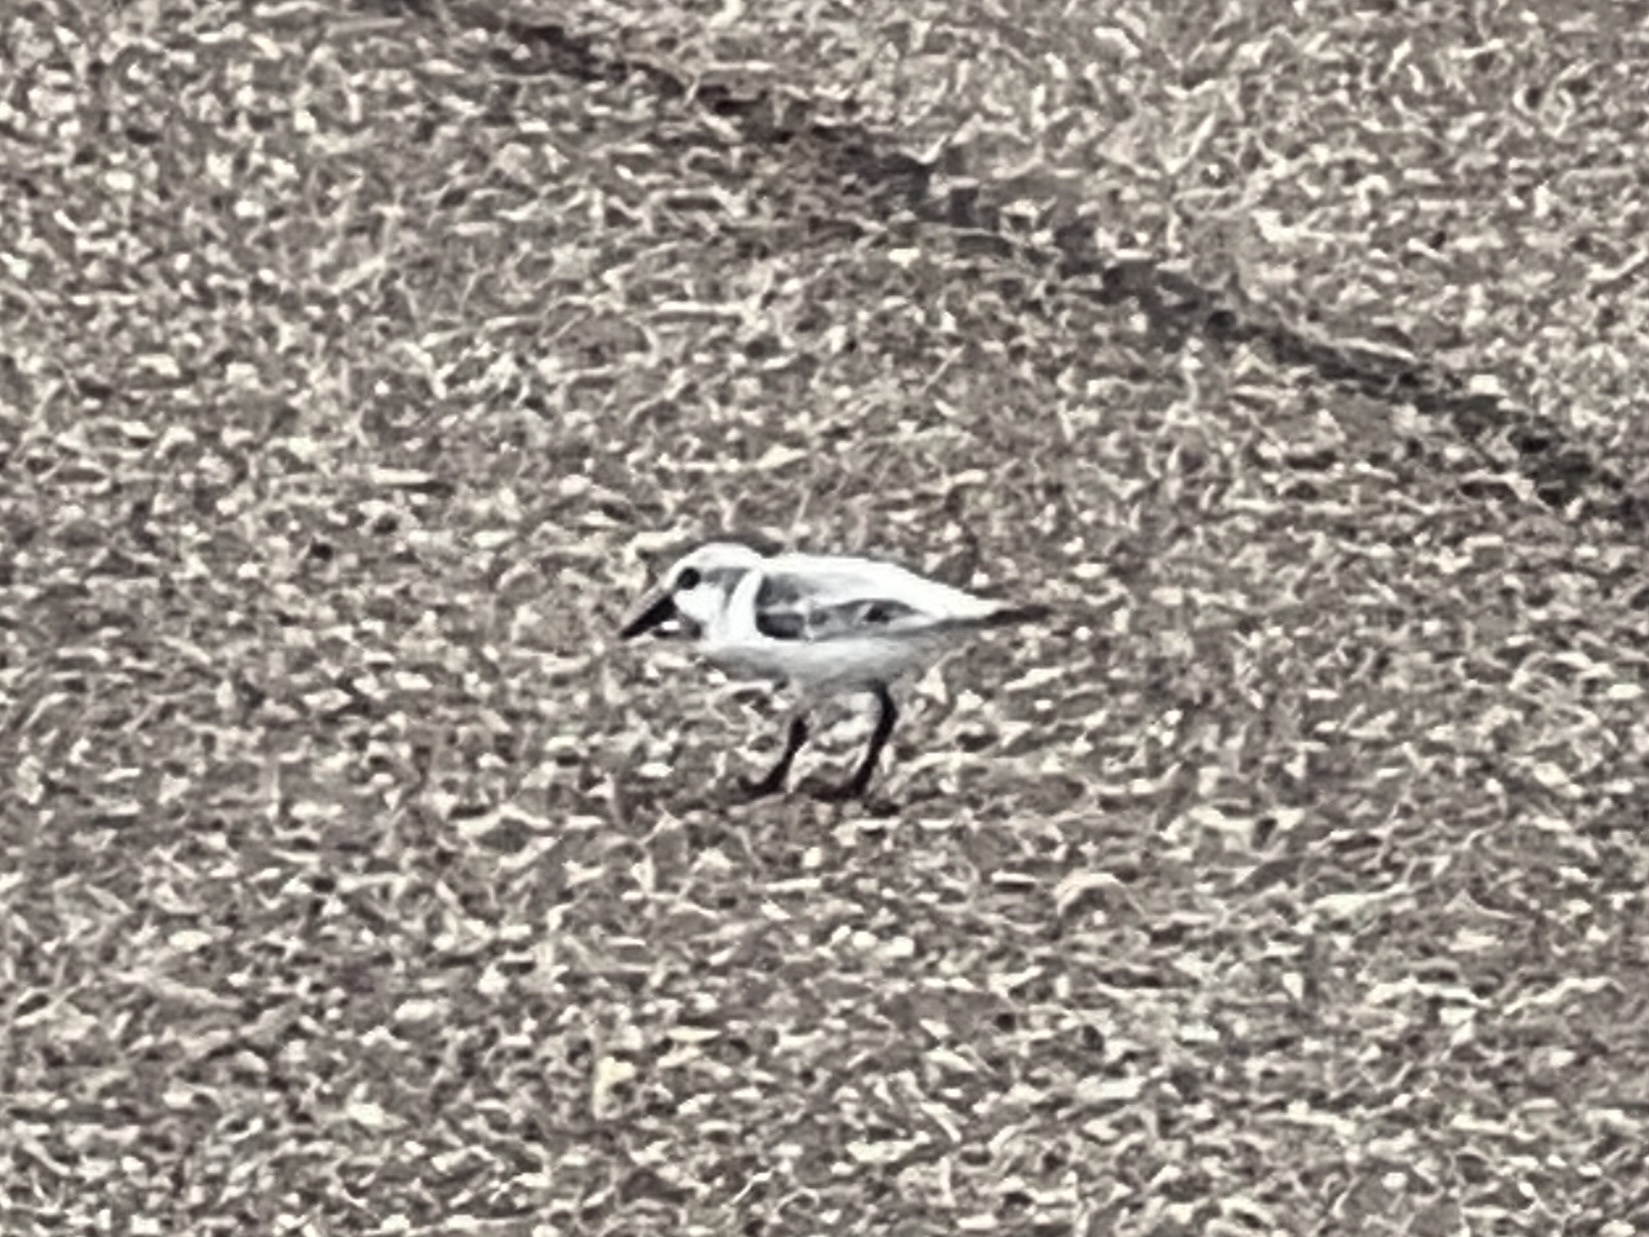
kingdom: Animalia
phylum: Chordata
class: Aves
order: Charadriiformes
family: Scolopacidae
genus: Calidris
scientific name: Calidris alba
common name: Sanderling
